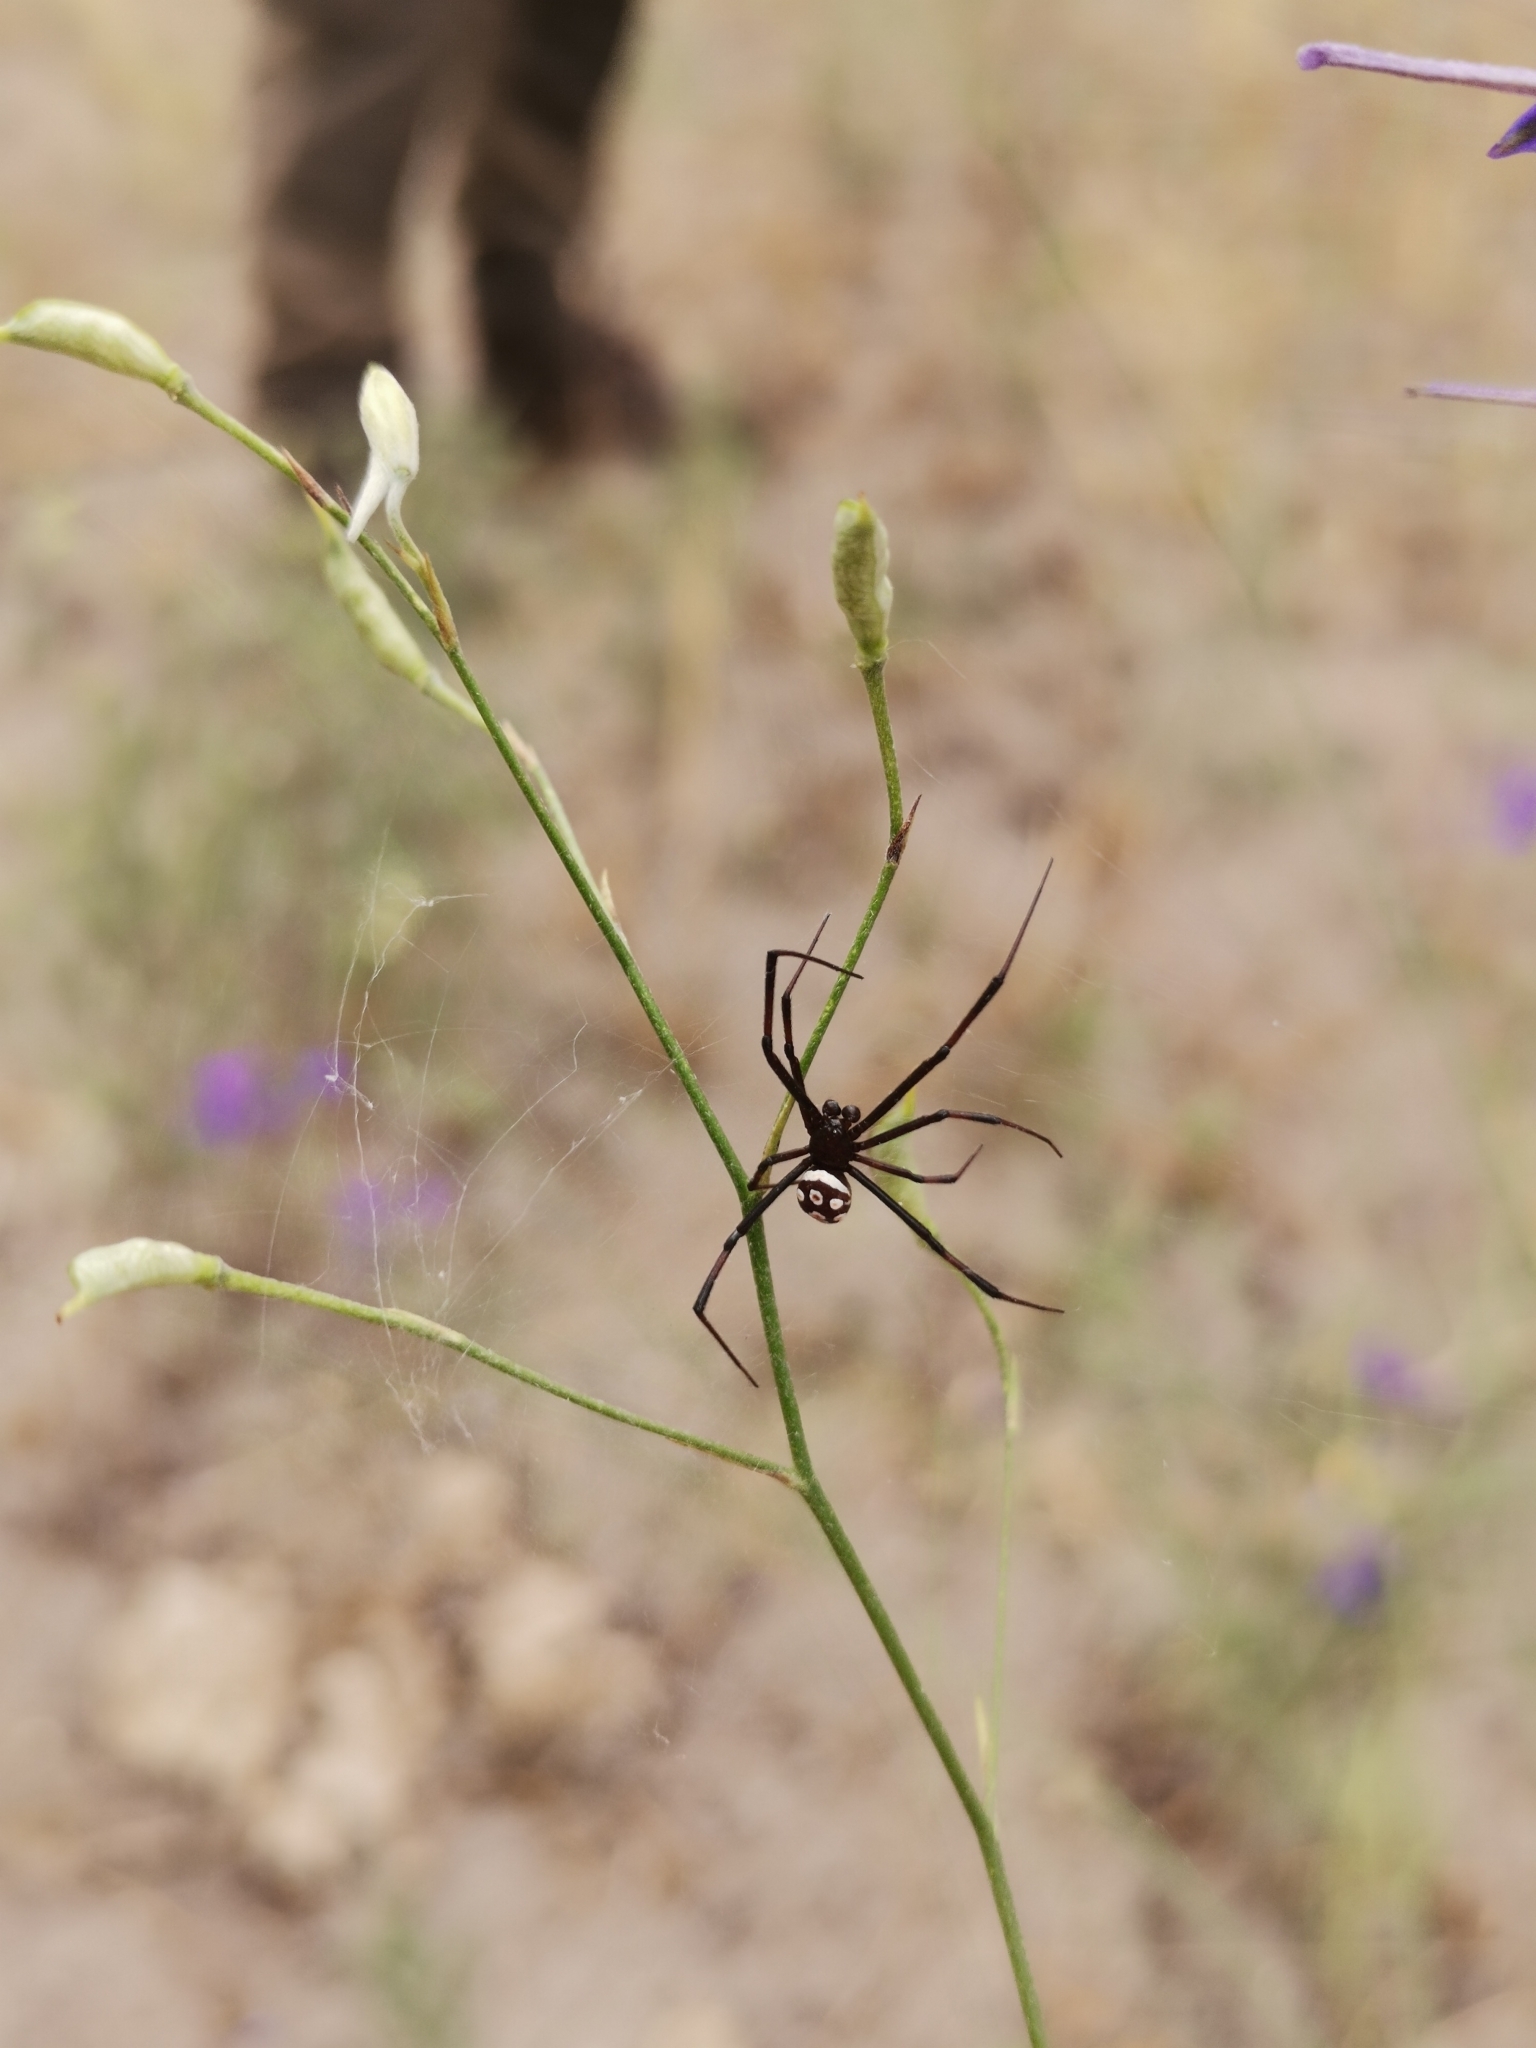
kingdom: Animalia
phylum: Arthropoda
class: Arachnida
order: Araneae
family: Theridiidae
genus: Latrodectus
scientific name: Latrodectus tredecimguttatus
